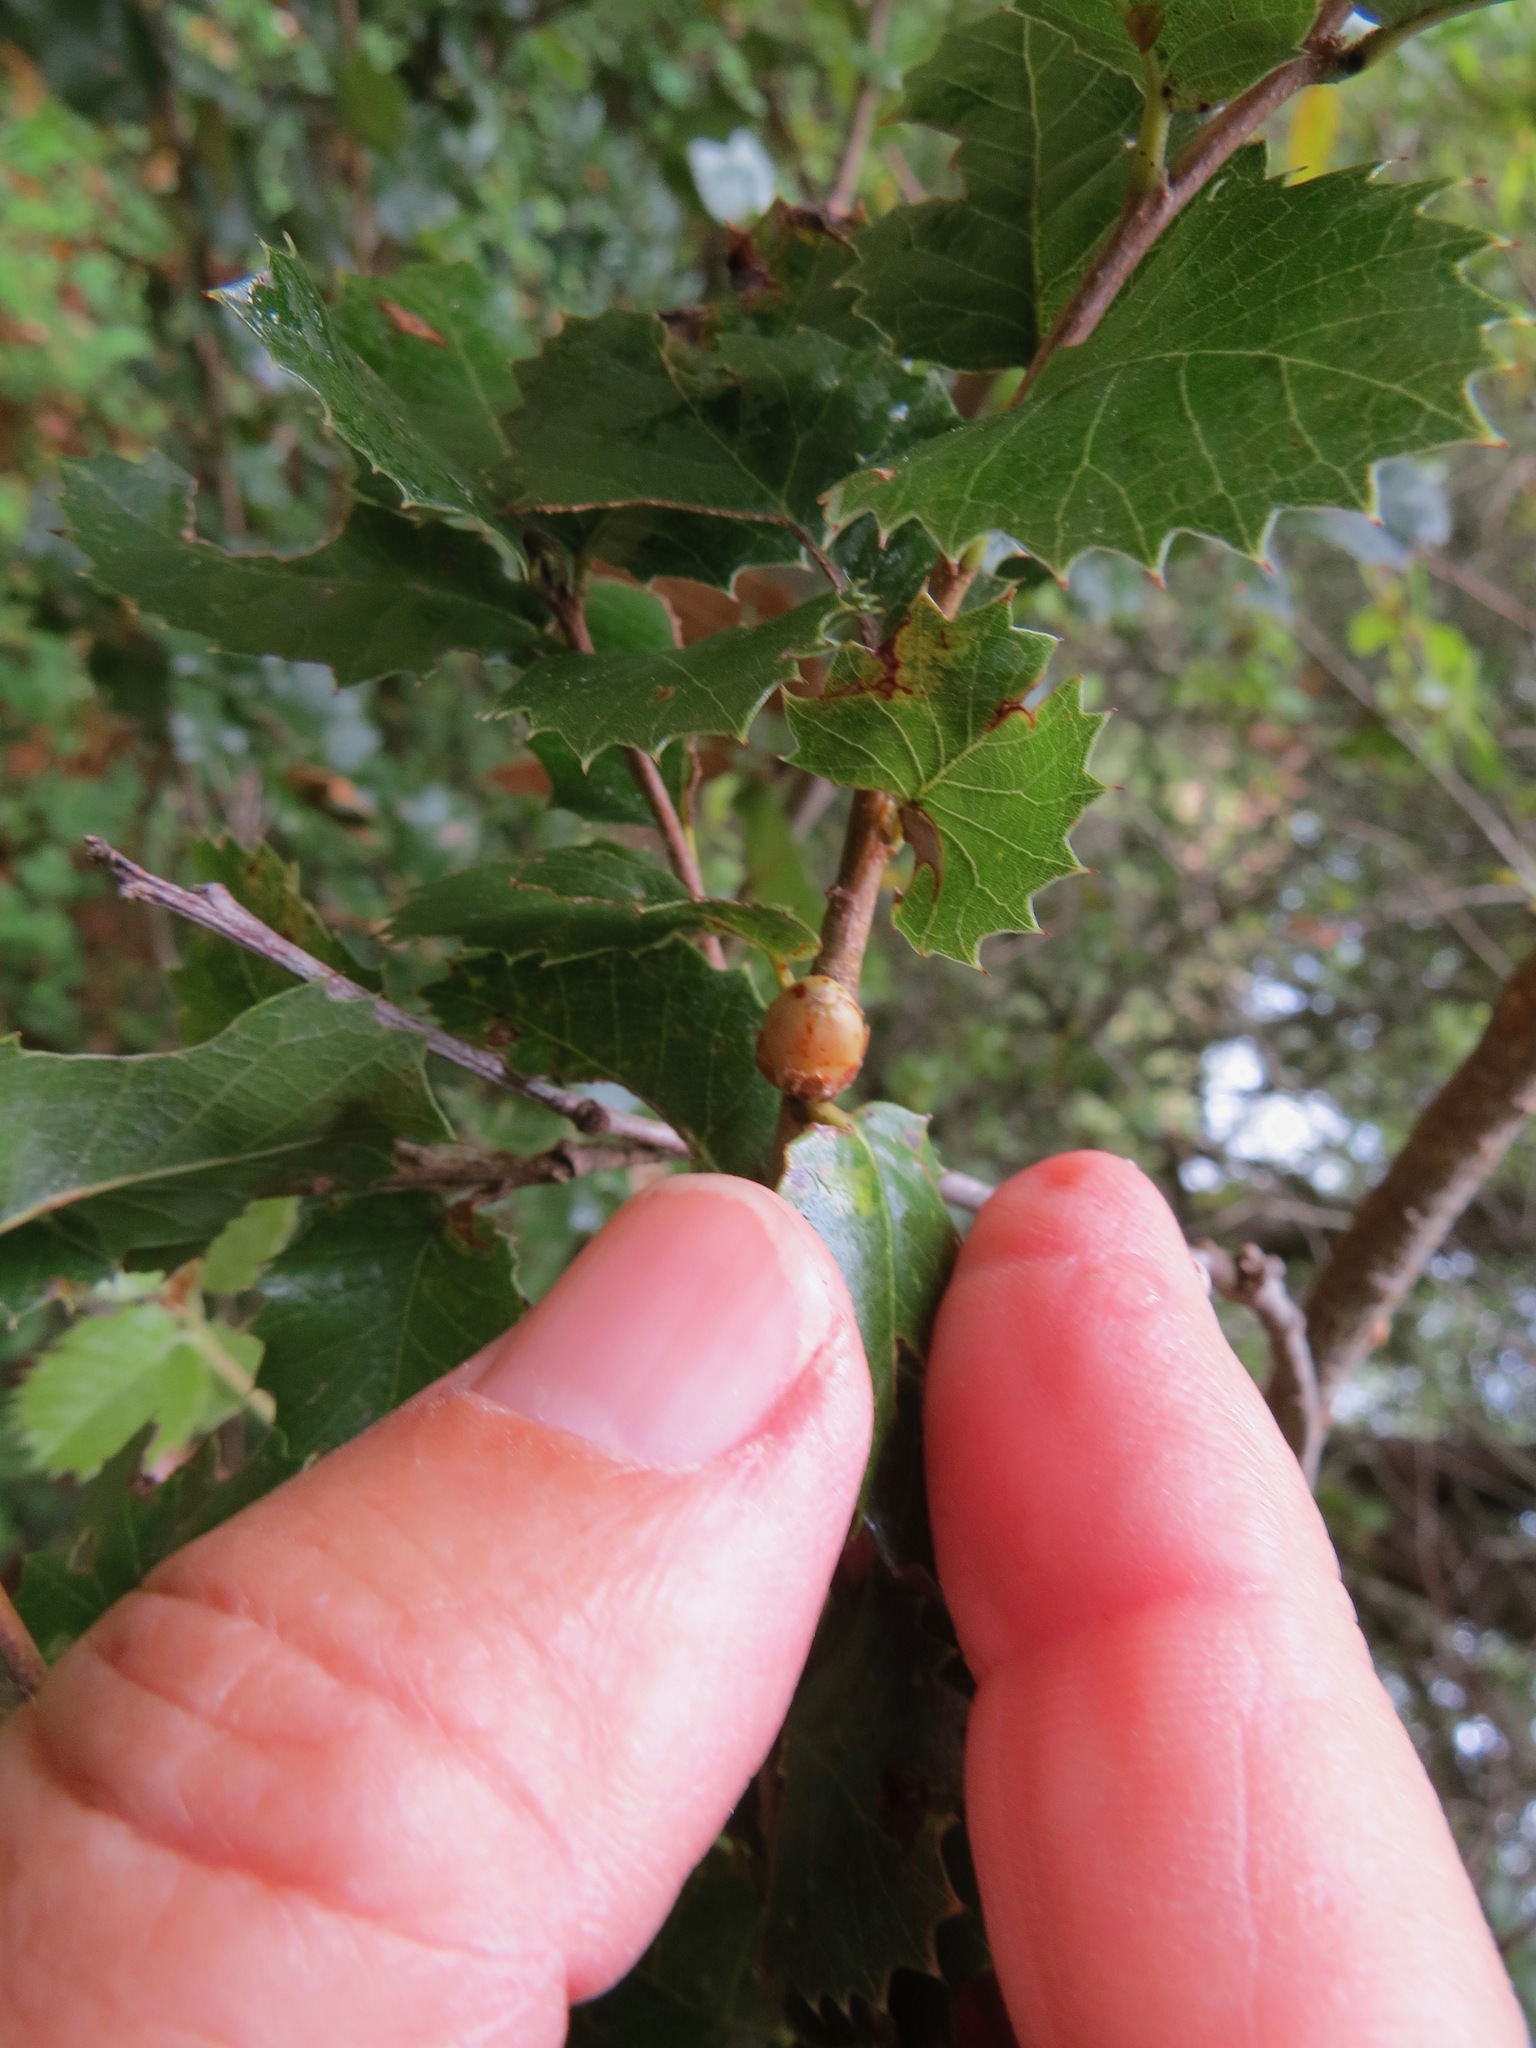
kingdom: Animalia
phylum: Arthropoda
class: Insecta
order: Hymenoptera
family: Cynipidae
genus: Andricus
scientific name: Andricus
